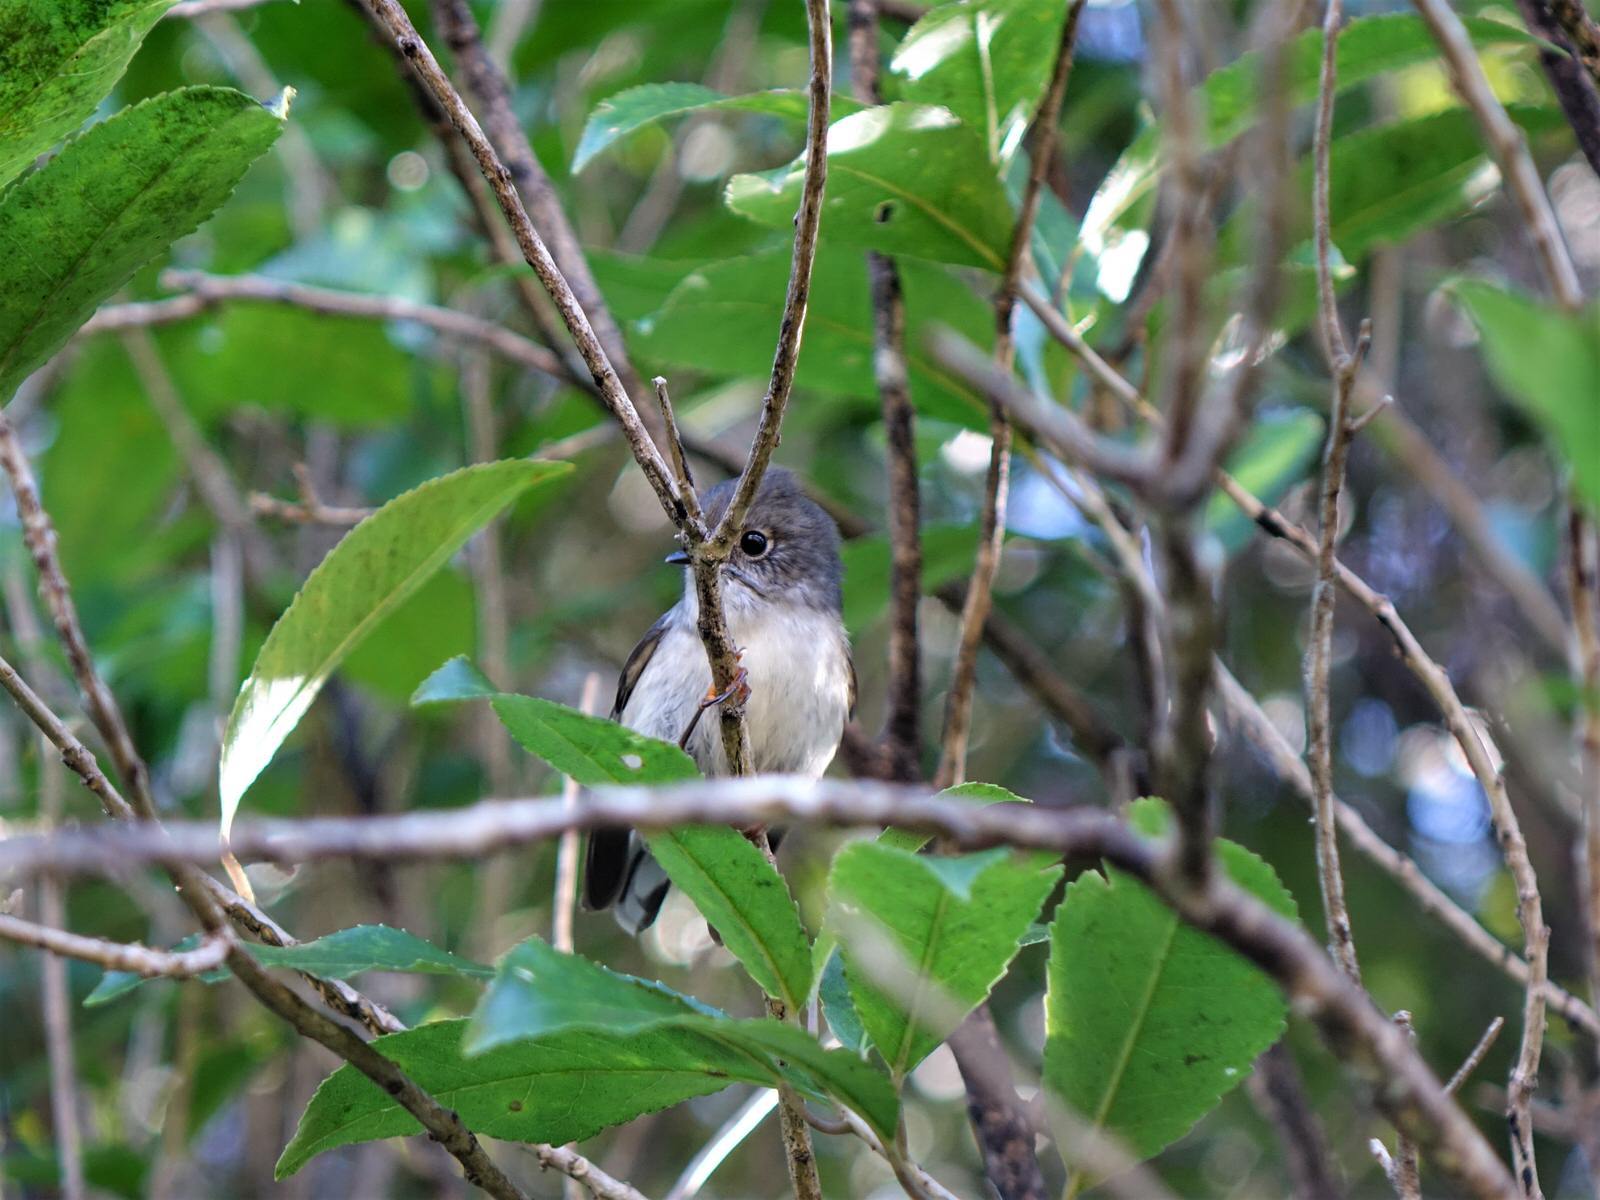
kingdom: Animalia
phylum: Chordata
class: Aves
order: Passeriformes
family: Petroicidae
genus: Petroica
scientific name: Petroica macrocephala
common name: Tomtit
